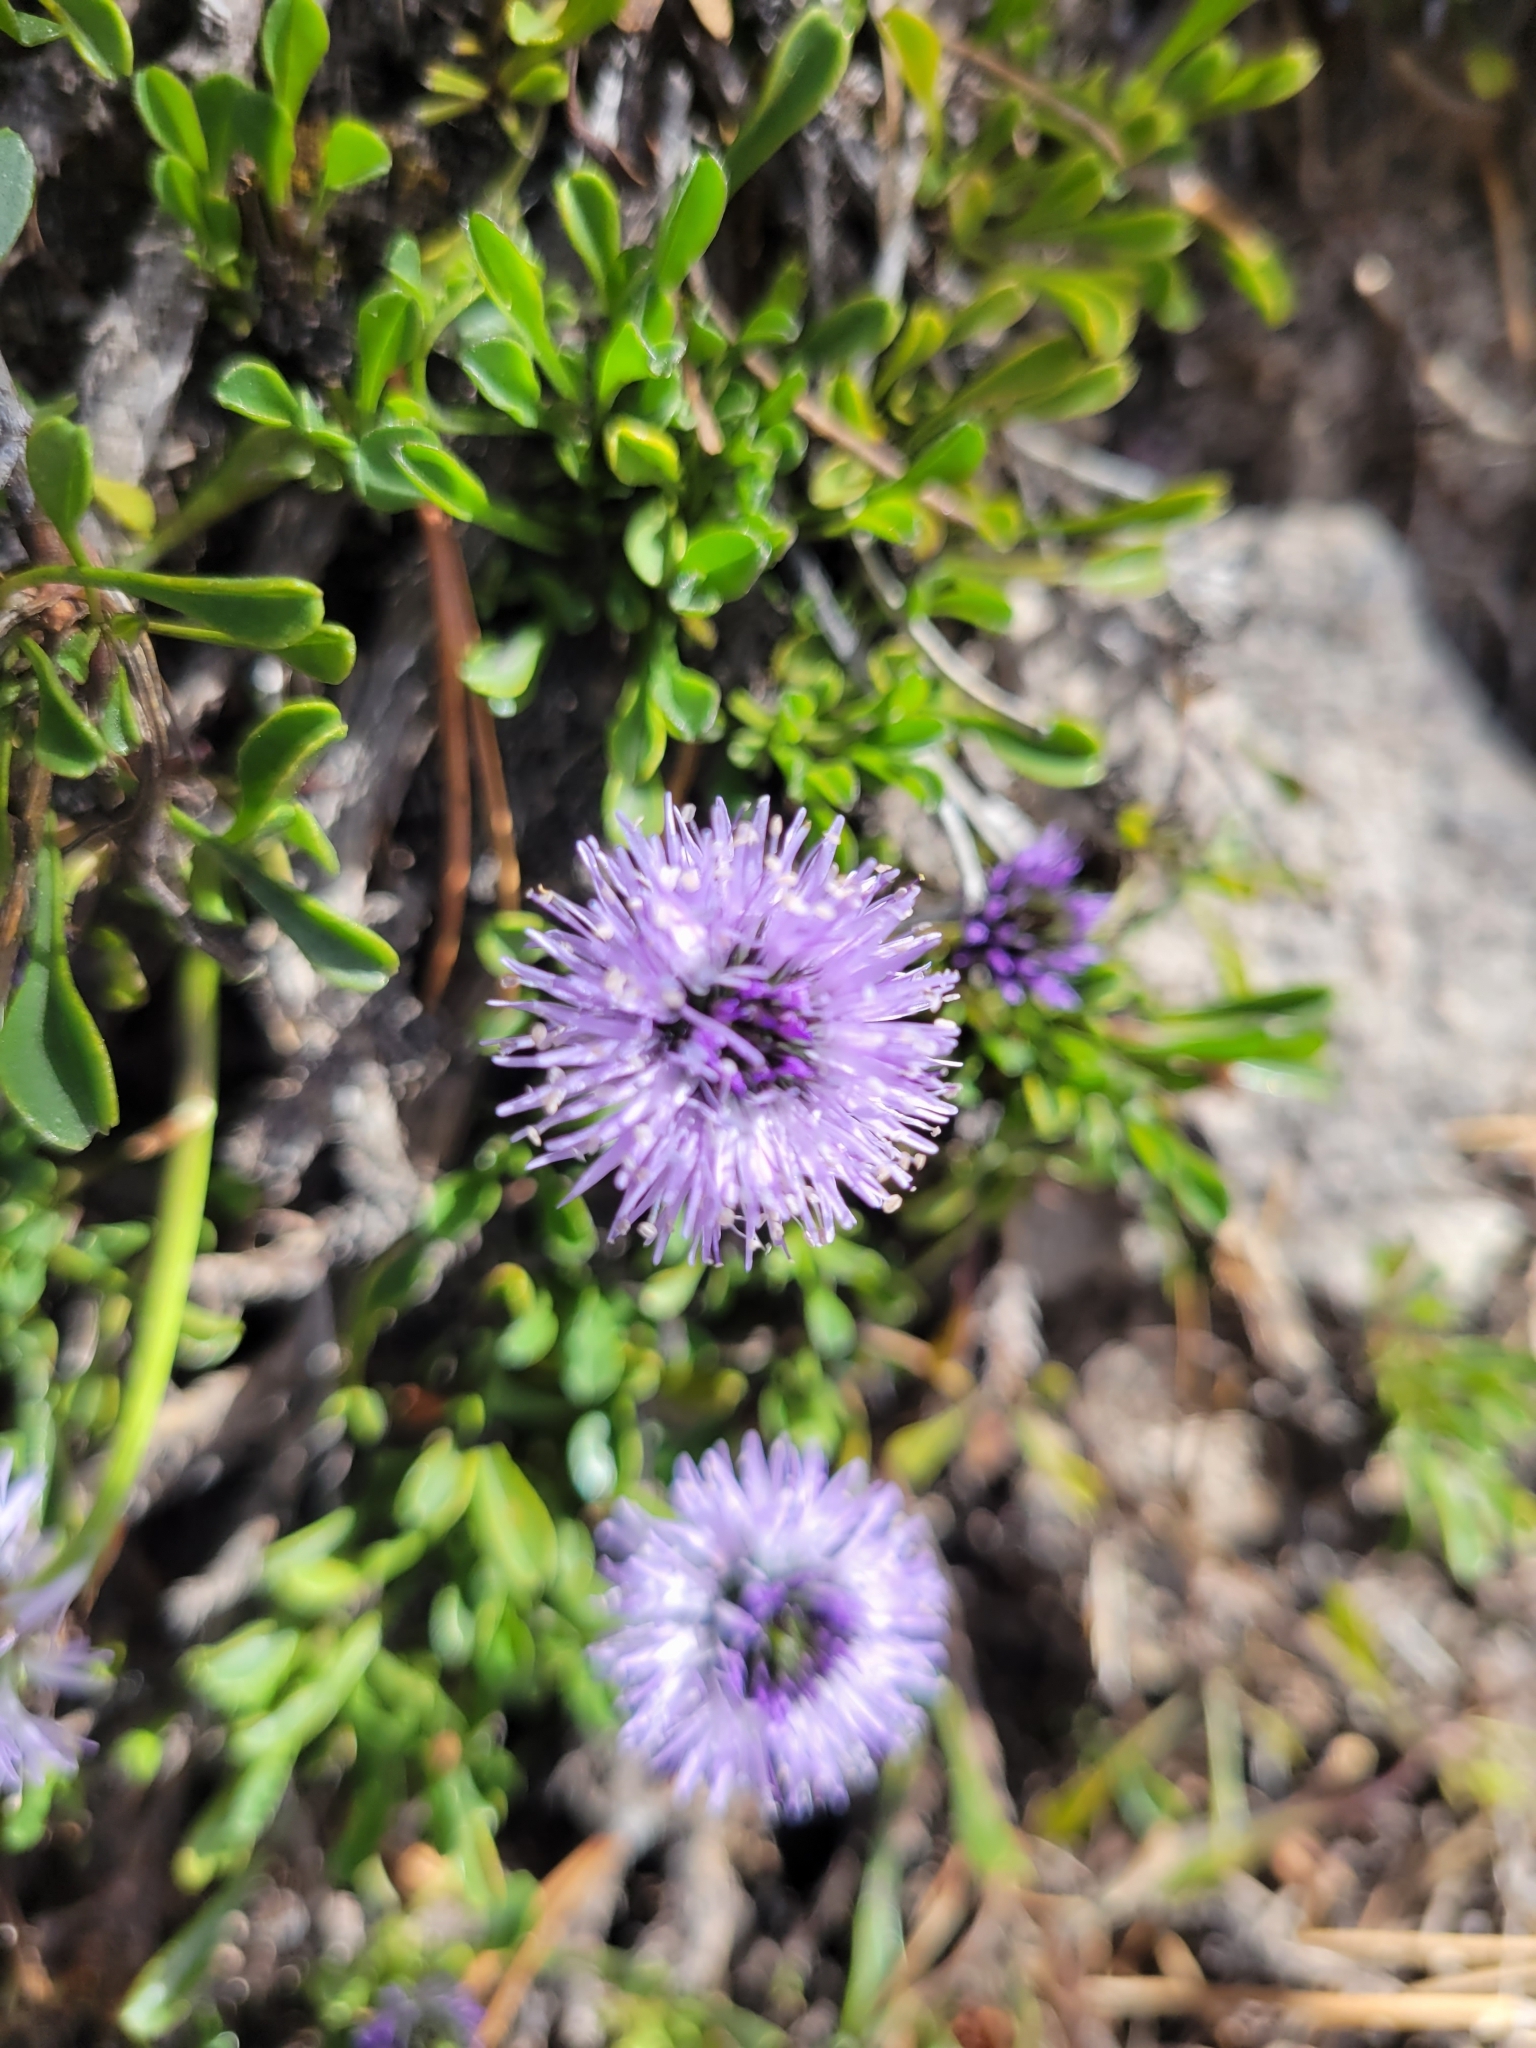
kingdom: Plantae
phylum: Tracheophyta
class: Magnoliopsida
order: Lamiales
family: Plantaginaceae
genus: Globularia
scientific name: Globularia cordifolia
